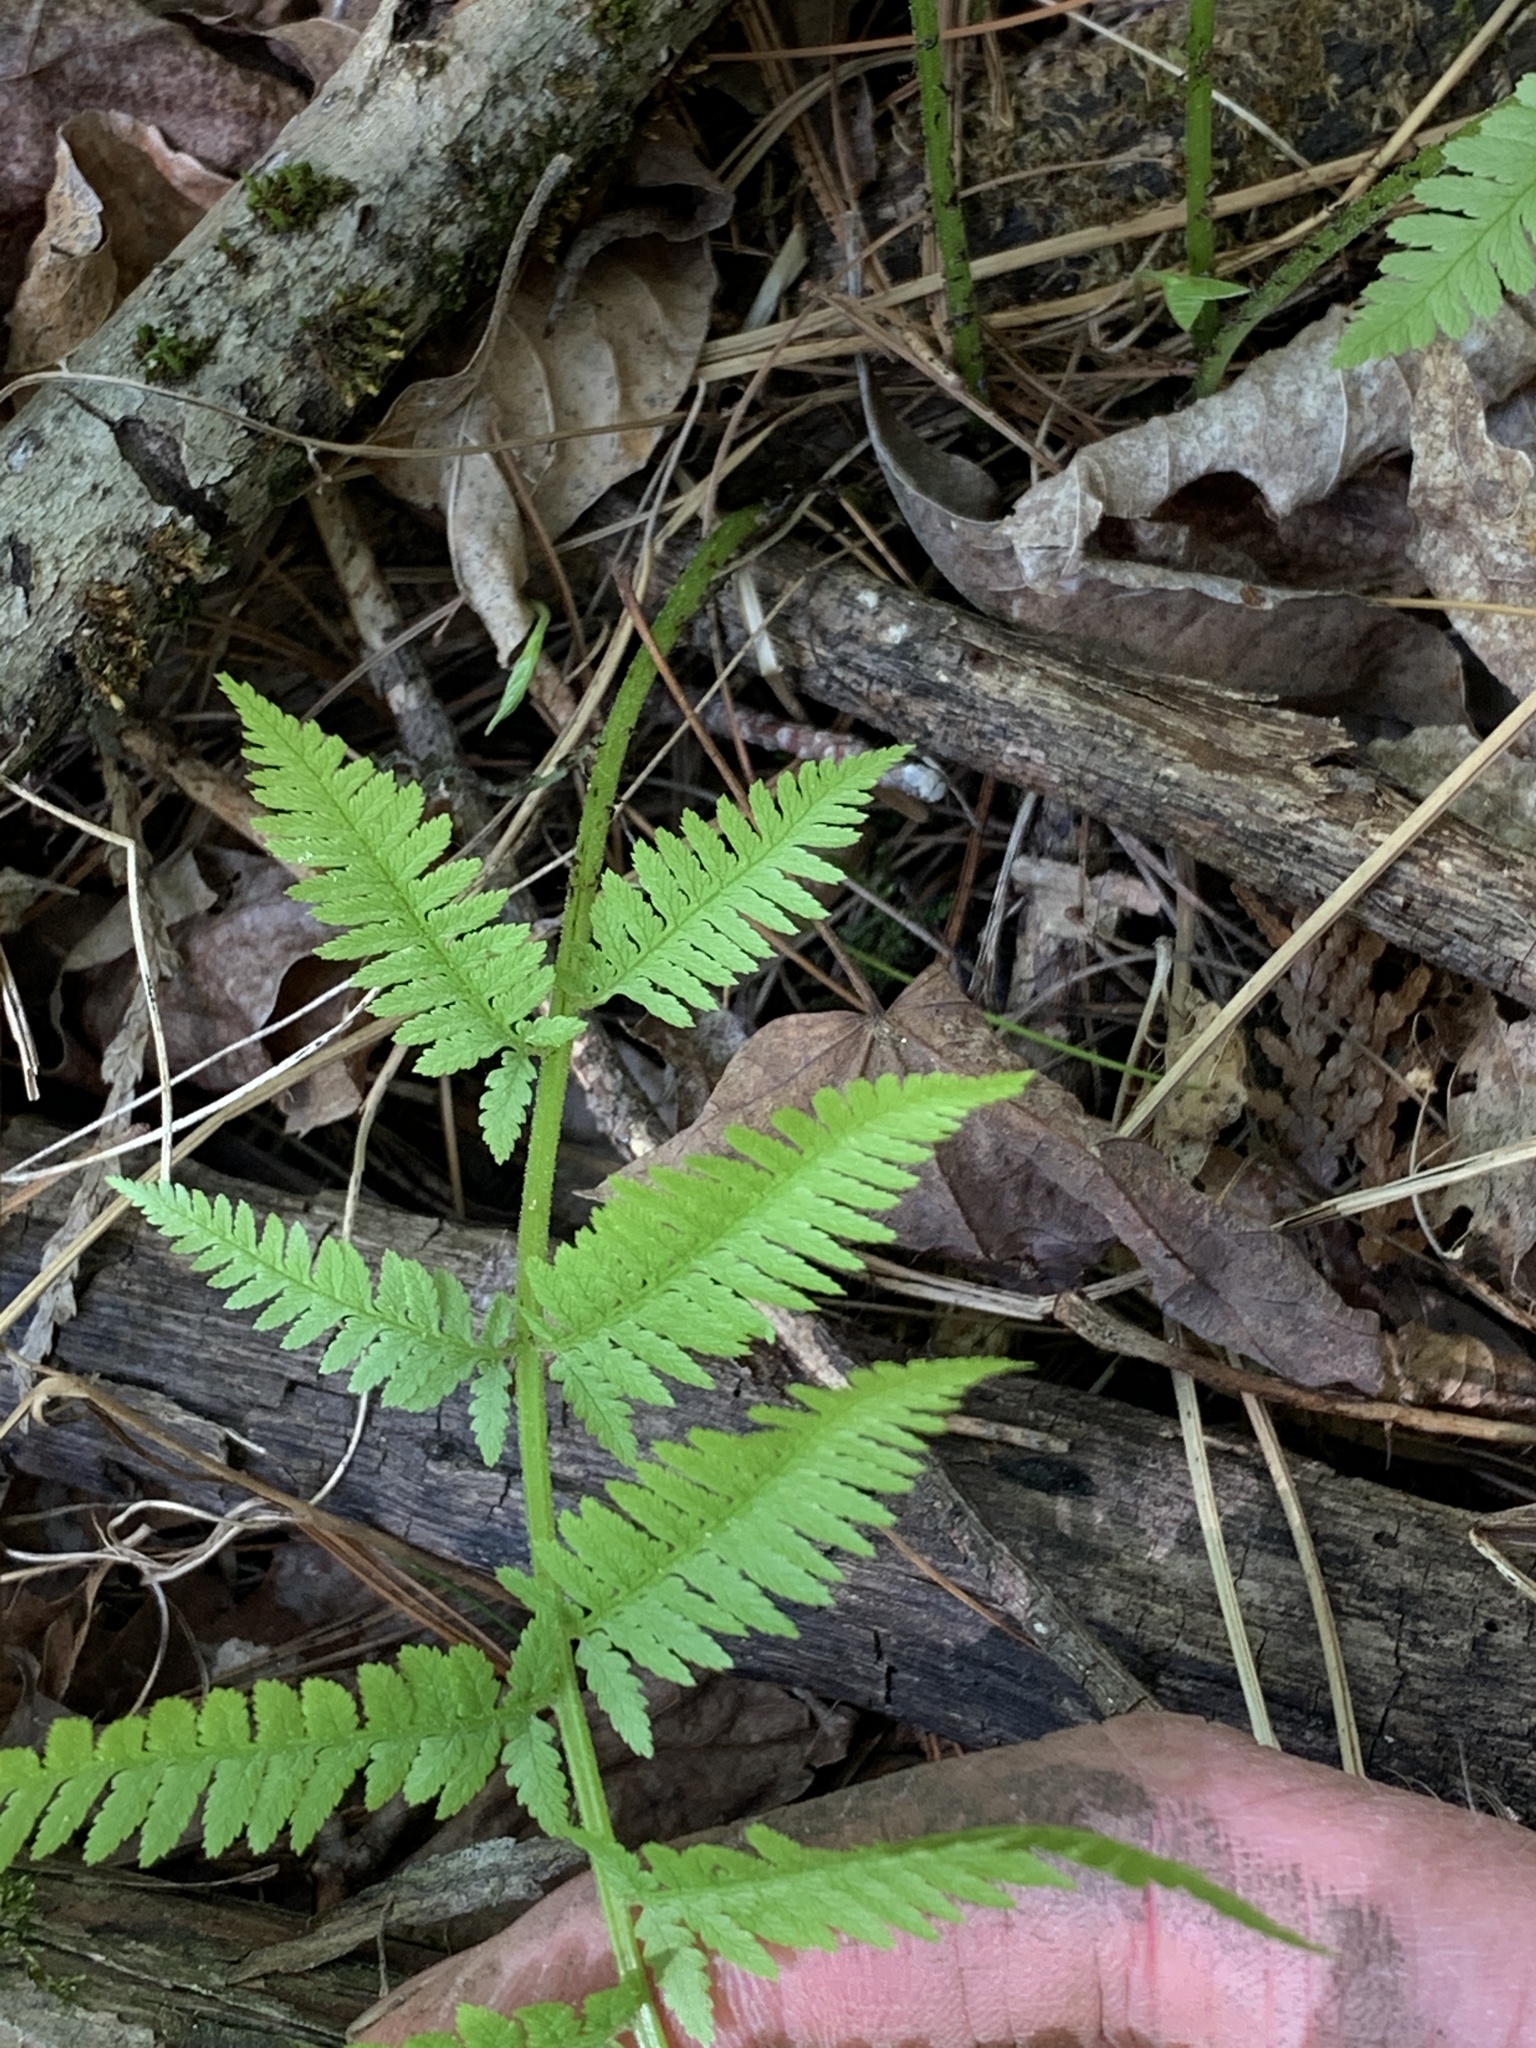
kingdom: Plantae
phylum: Tracheophyta
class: Polypodiopsida
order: Polypodiales
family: Athyriaceae
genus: Athyrium
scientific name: Athyrium angustum
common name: Northern lady fern
